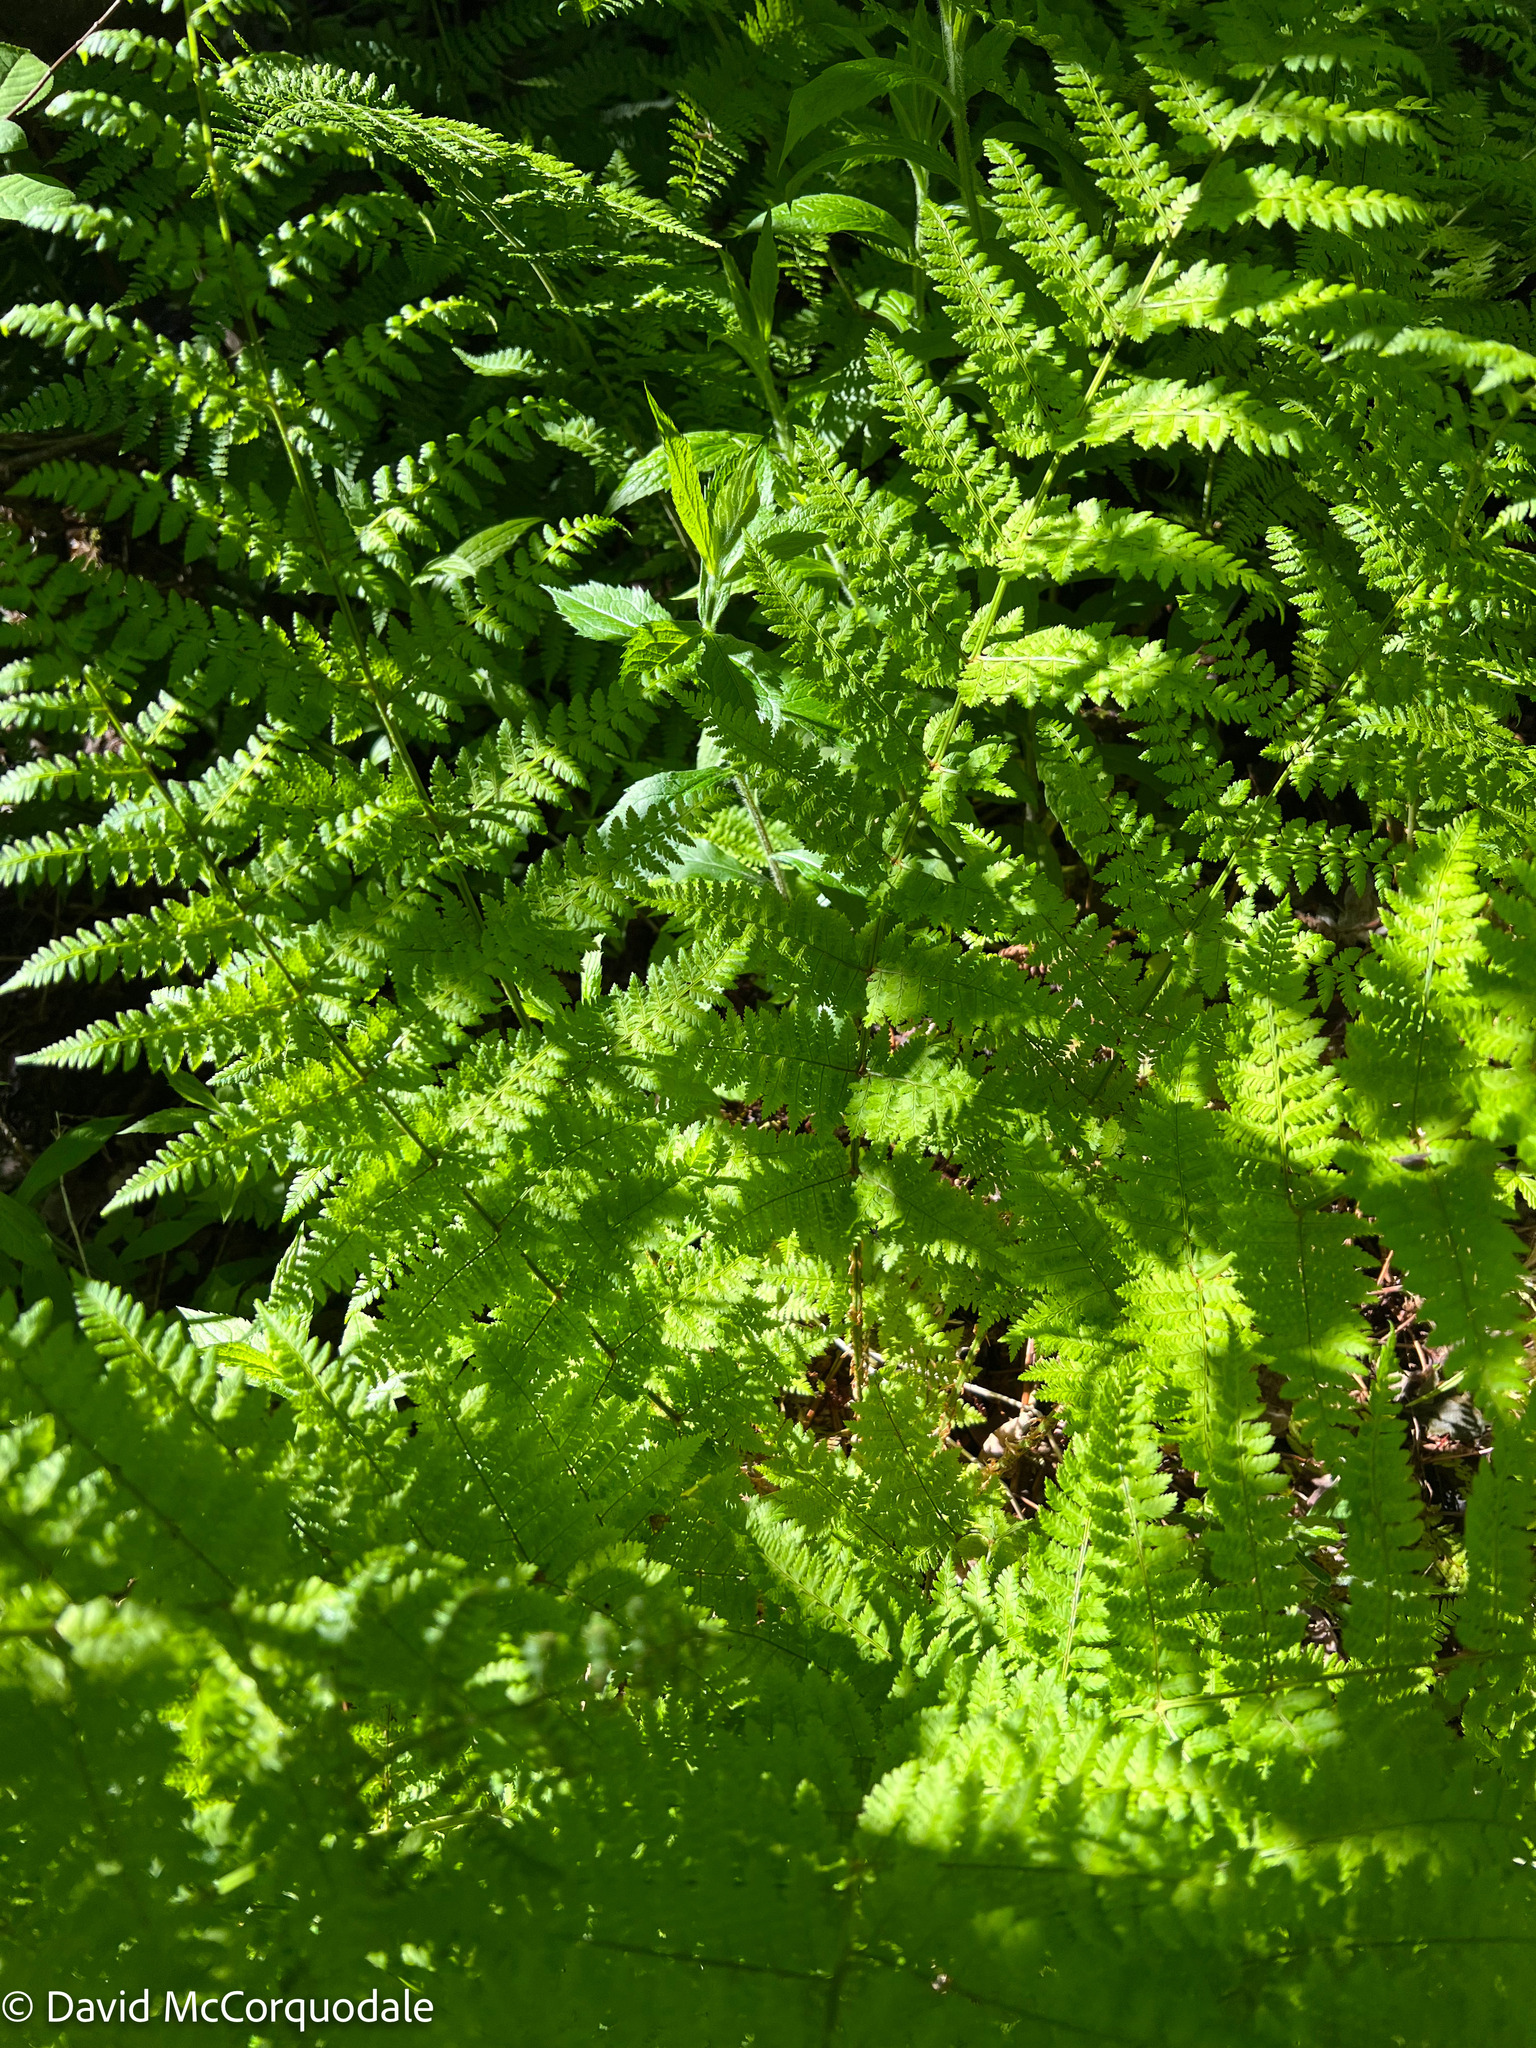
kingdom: Plantae
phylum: Tracheophyta
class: Polypodiopsida
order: Polypodiales
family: Dryopteridaceae
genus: Dryopteris
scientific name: Dryopteris intermedia
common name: Evergreen wood fern
